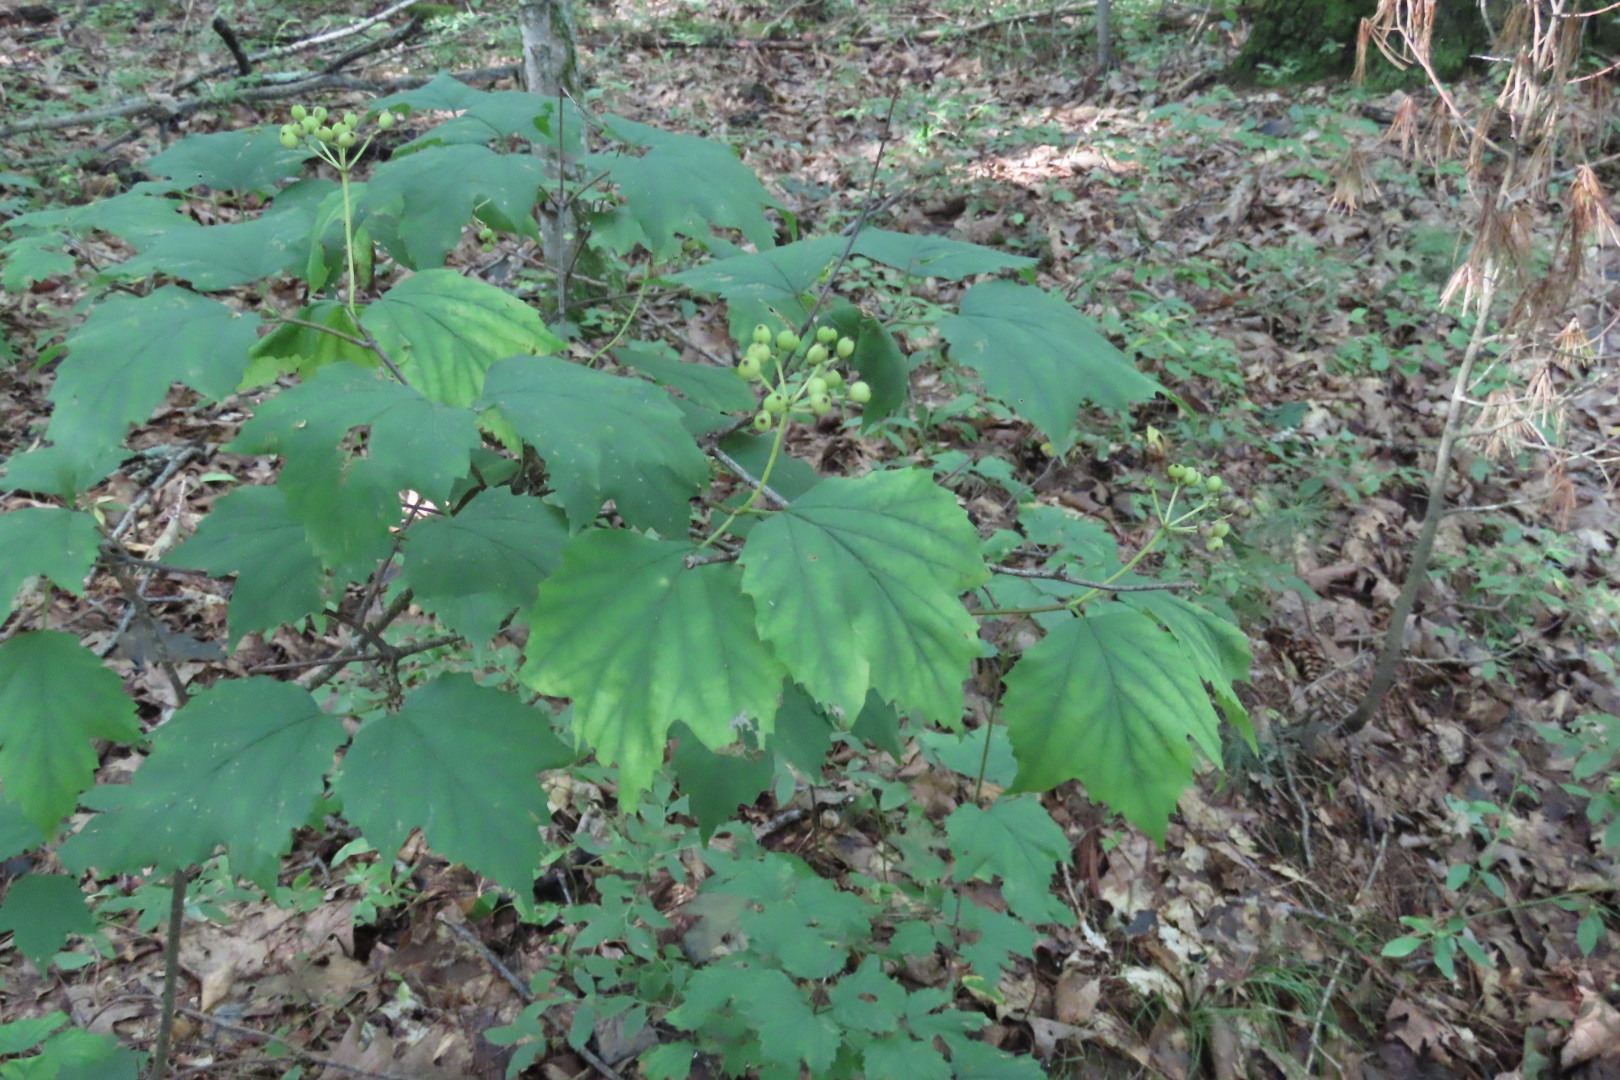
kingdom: Plantae
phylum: Tracheophyta
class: Magnoliopsida
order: Dipsacales
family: Viburnaceae
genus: Viburnum
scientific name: Viburnum acerifolium
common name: Dockmackie
